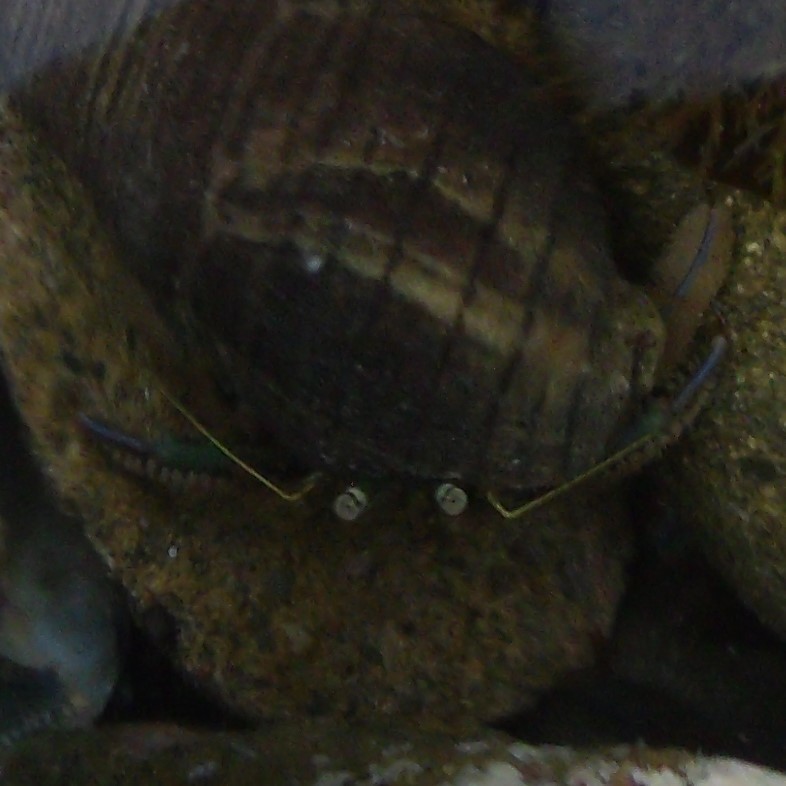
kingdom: Animalia
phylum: Arthropoda
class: Malacostraca
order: Decapoda
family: Paguridae
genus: Pagurus
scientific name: Pagurus novizealandiae
